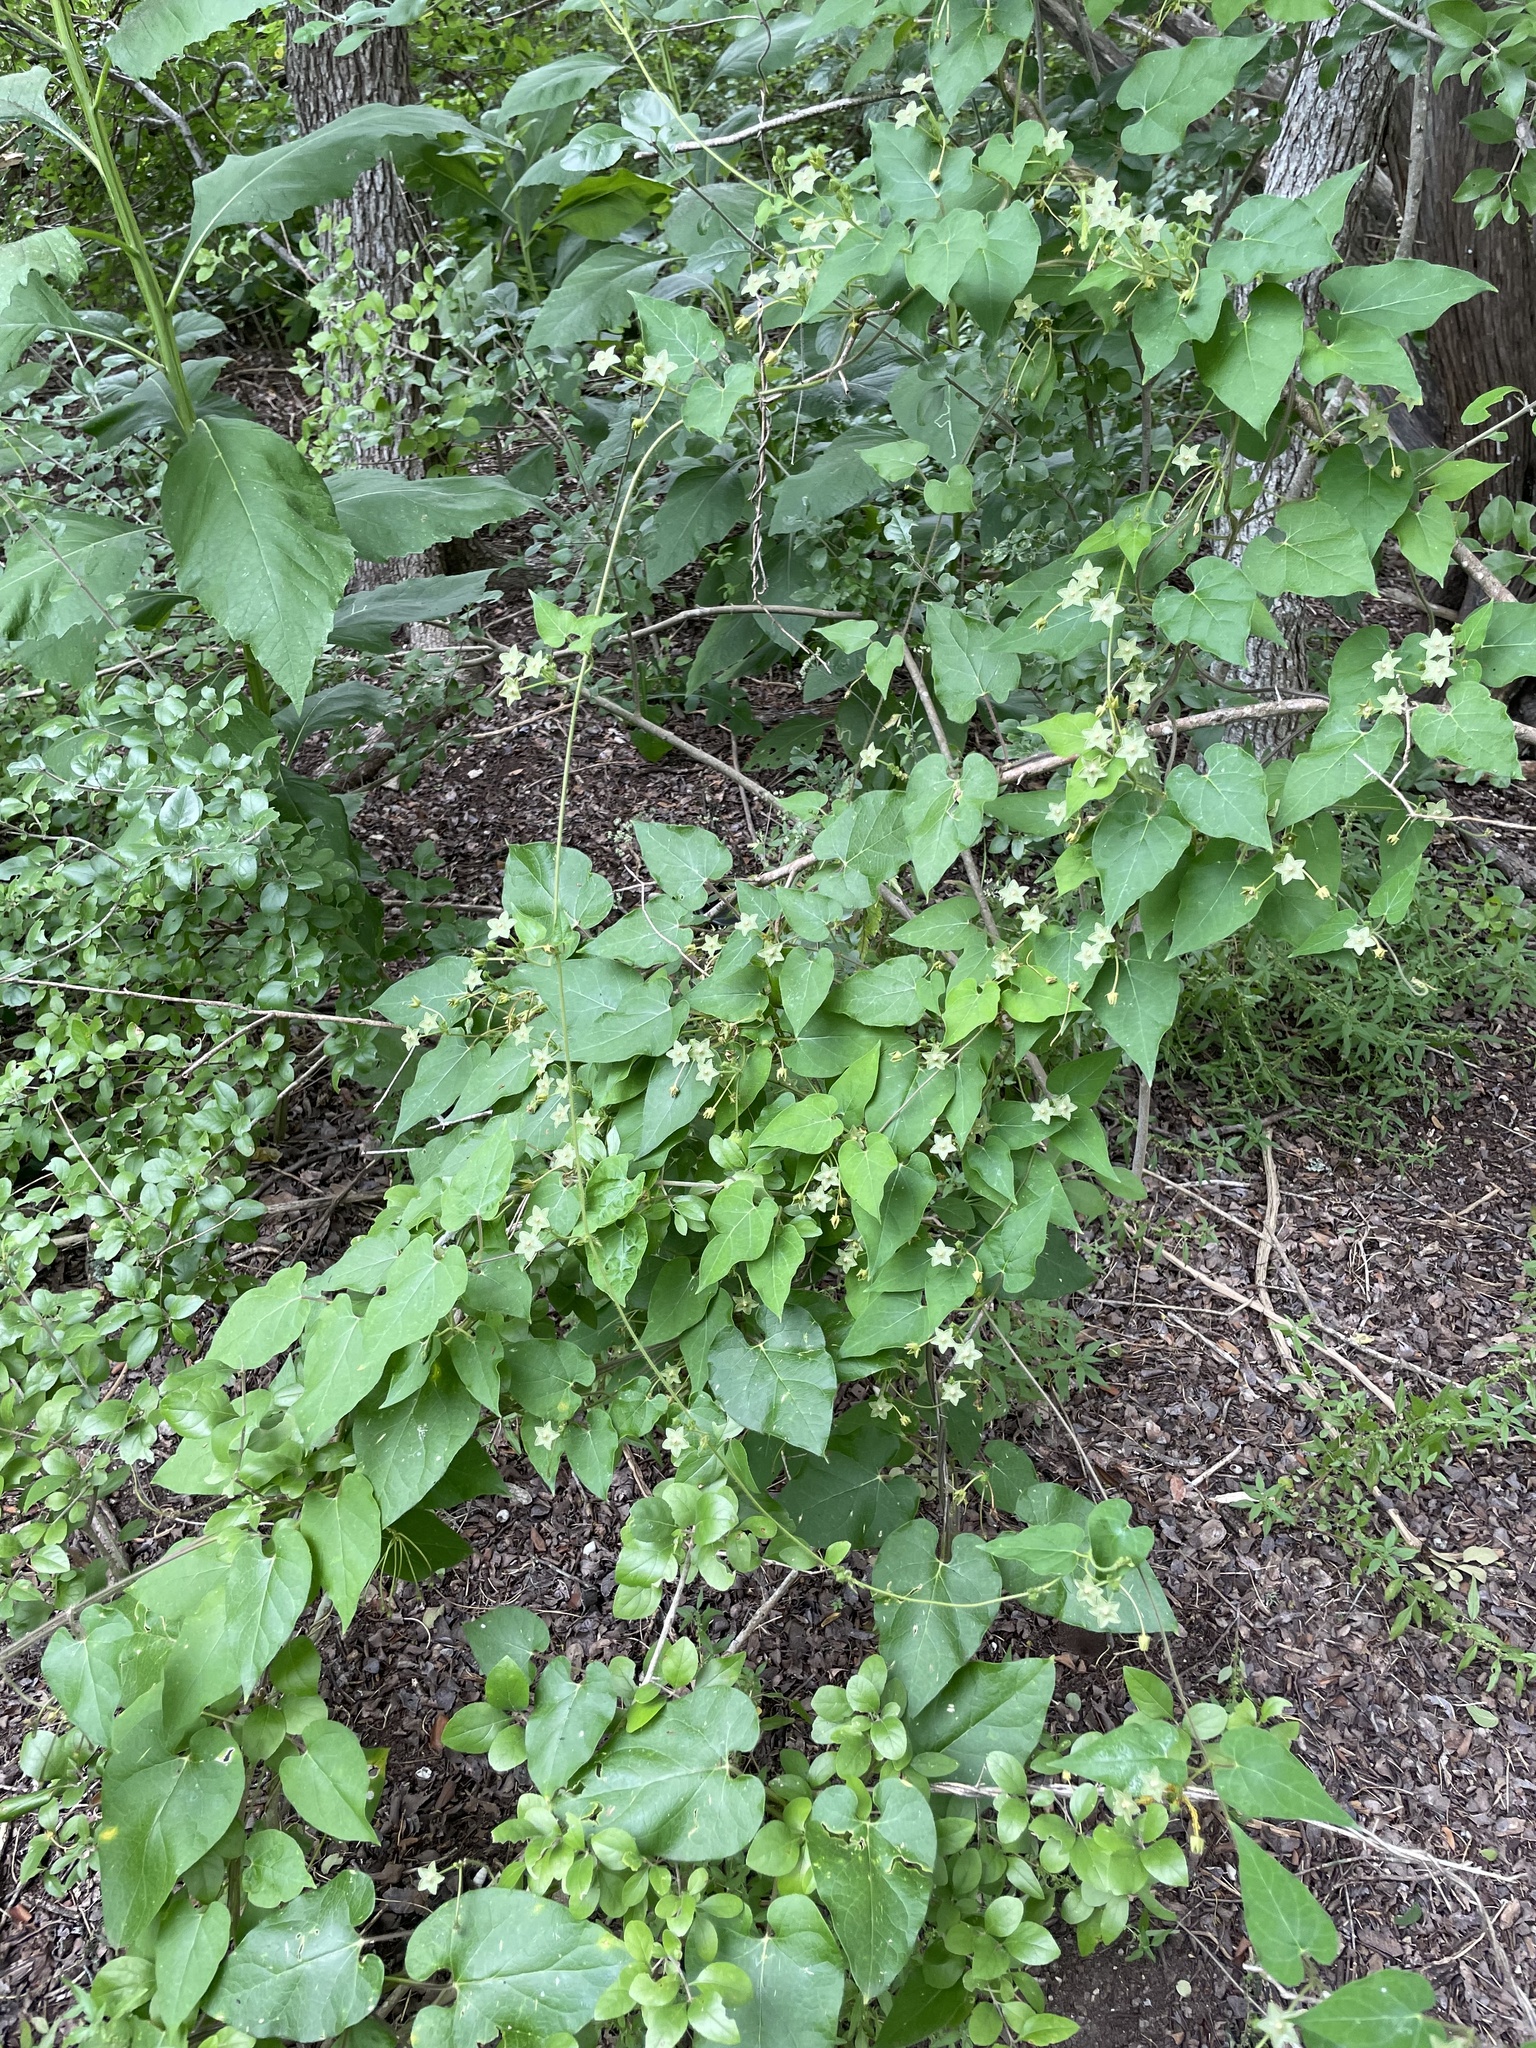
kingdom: Plantae
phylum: Tracheophyta
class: Magnoliopsida
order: Gentianales
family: Apocynaceae
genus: Dictyanthus
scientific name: Dictyanthus reticulatus
